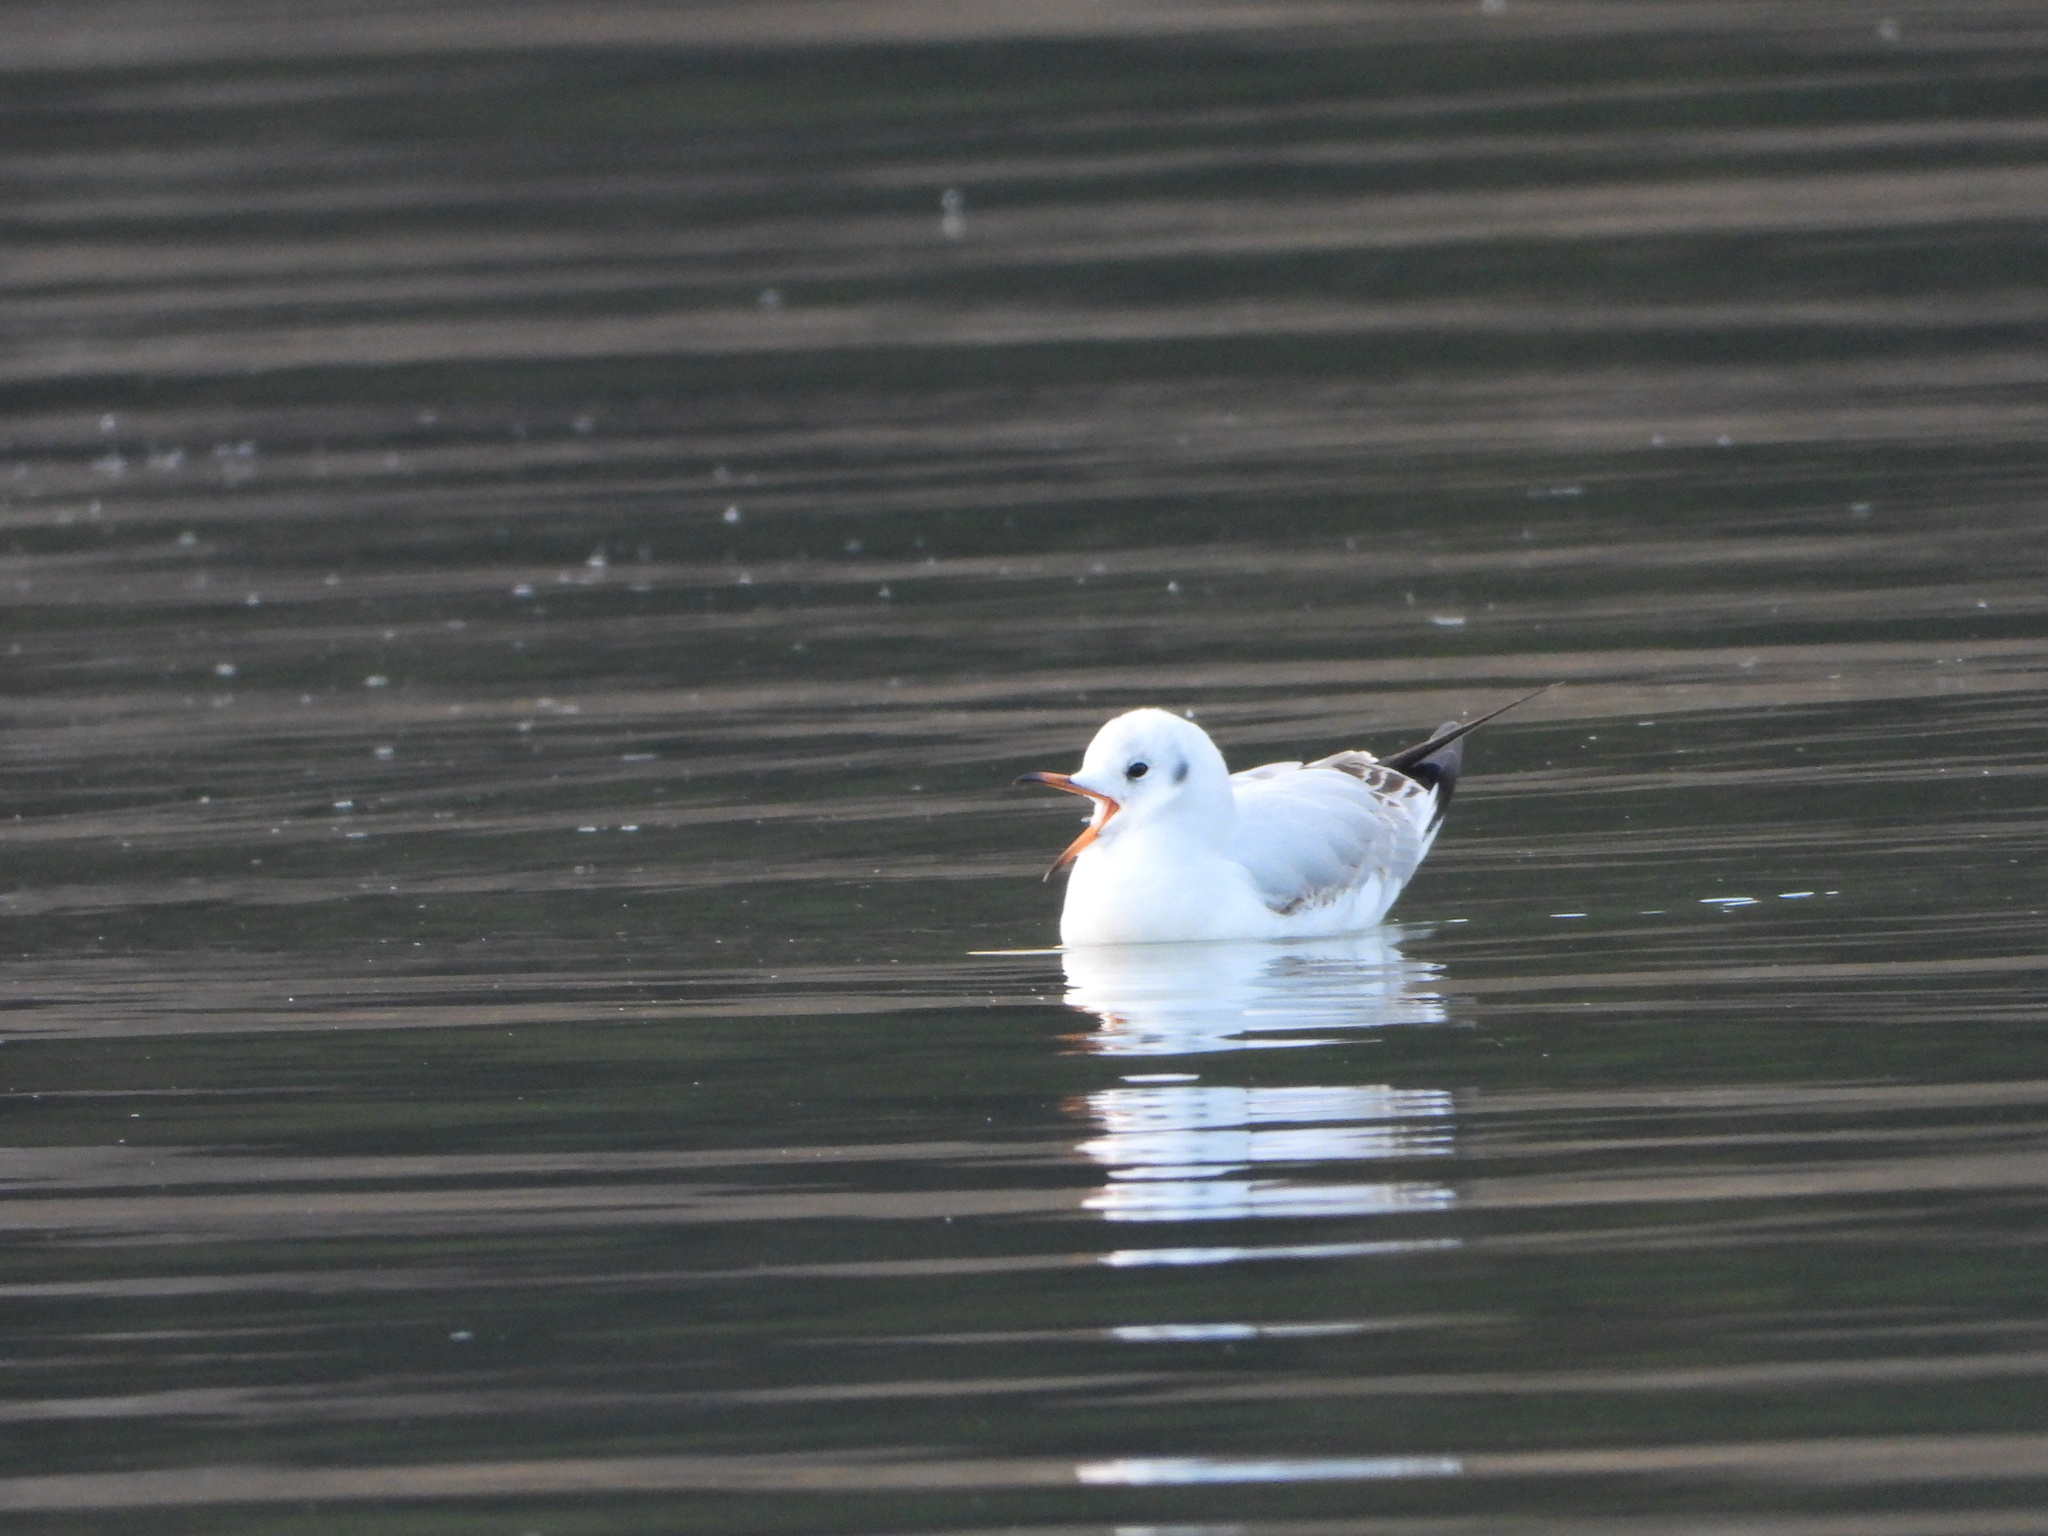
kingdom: Animalia
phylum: Chordata
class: Aves
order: Charadriiformes
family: Laridae
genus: Chroicocephalus
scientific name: Chroicocephalus ridibundus
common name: Black-headed gull
